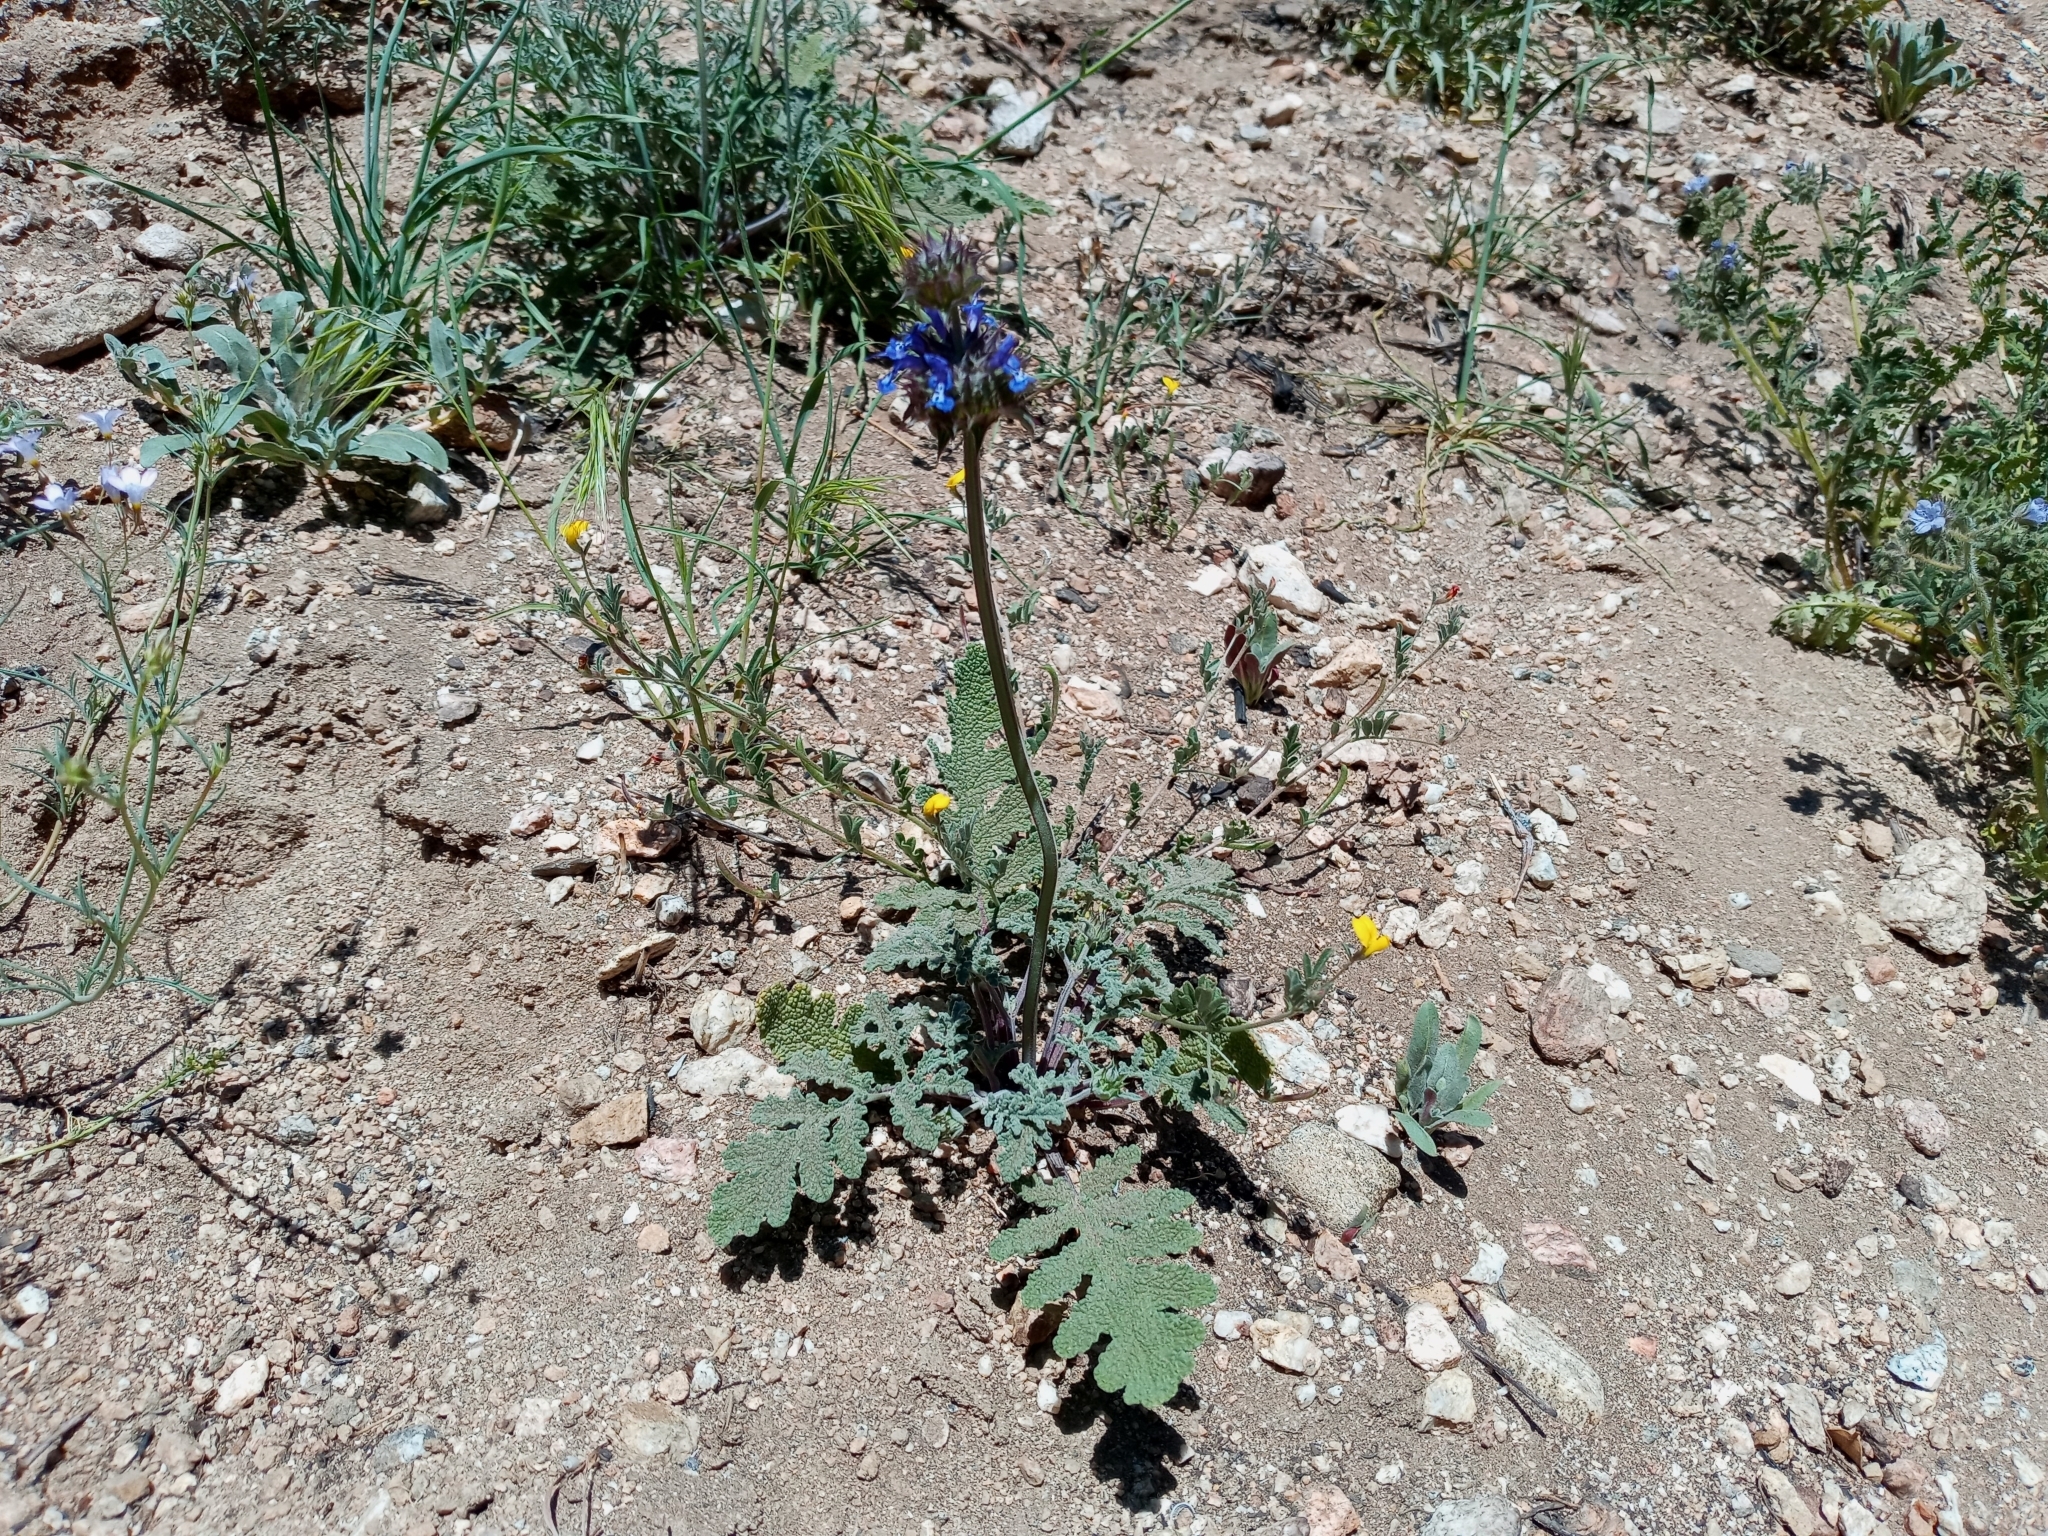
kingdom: Plantae
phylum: Tracheophyta
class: Magnoliopsida
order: Lamiales
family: Lamiaceae
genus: Salvia
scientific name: Salvia columbariae
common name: Chia
